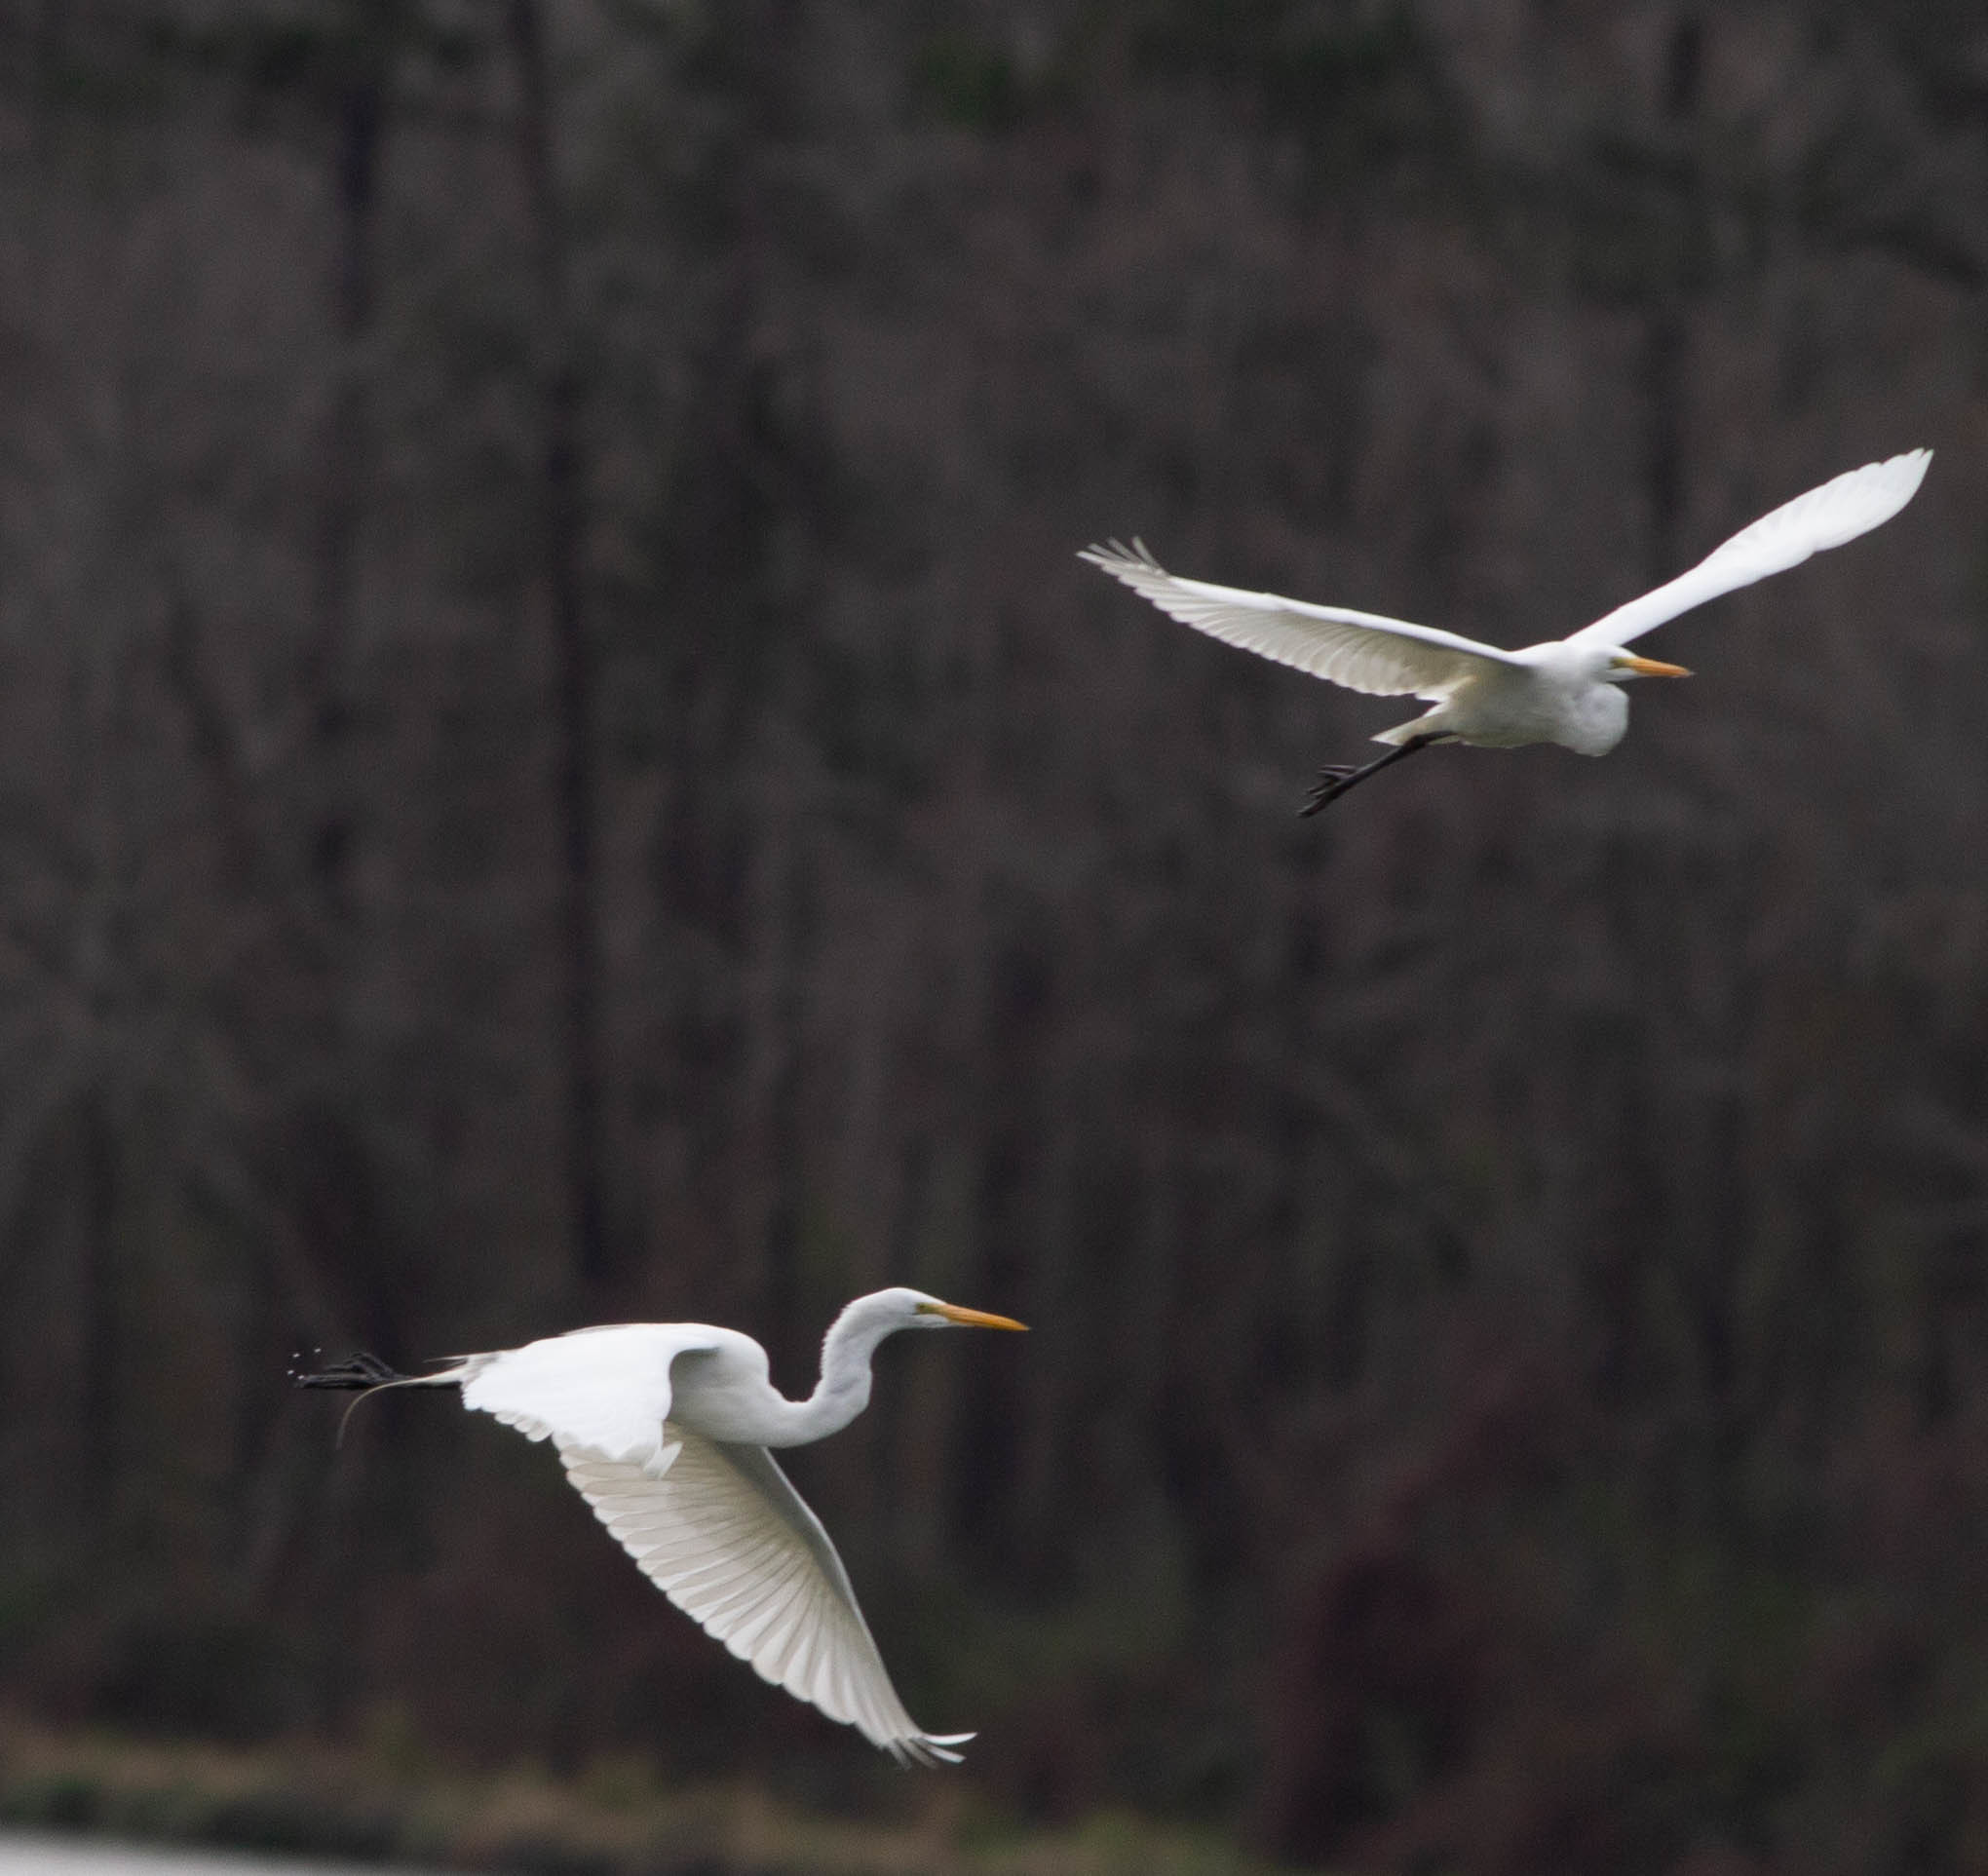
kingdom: Animalia
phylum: Chordata
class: Aves
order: Pelecaniformes
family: Ardeidae
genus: Ardea
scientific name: Ardea alba
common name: Great egret
